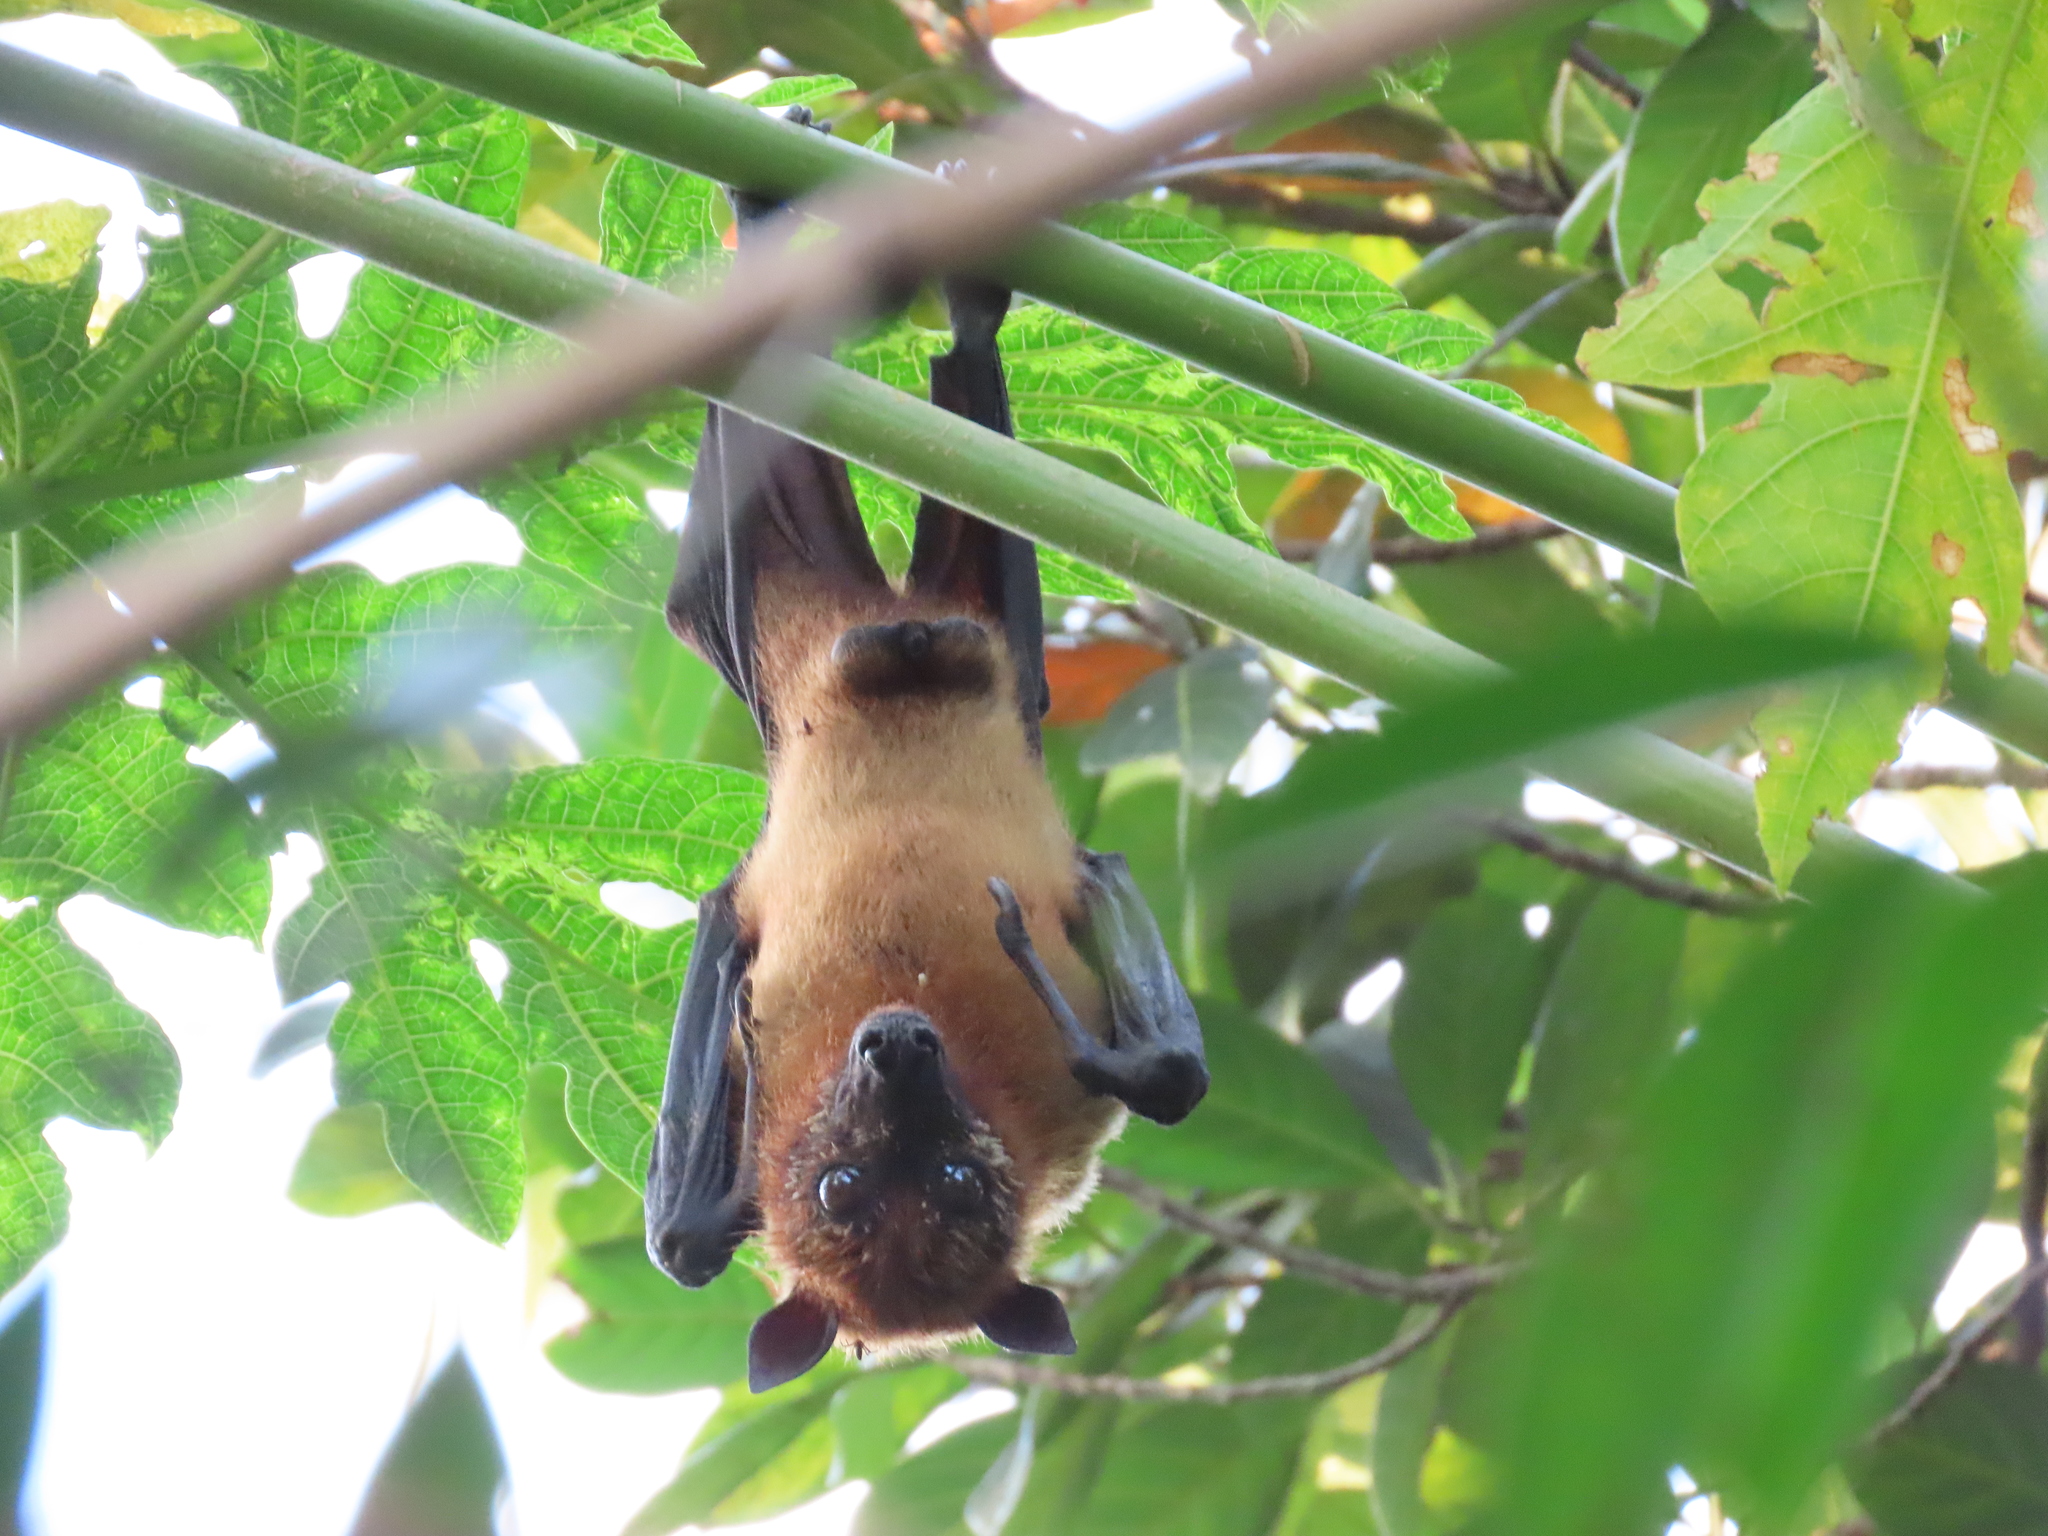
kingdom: Animalia
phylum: Chordata
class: Mammalia
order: Chiroptera
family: Pteropodidae
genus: Pteropus
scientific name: Pteropus vampyrus
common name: Large flying fox
